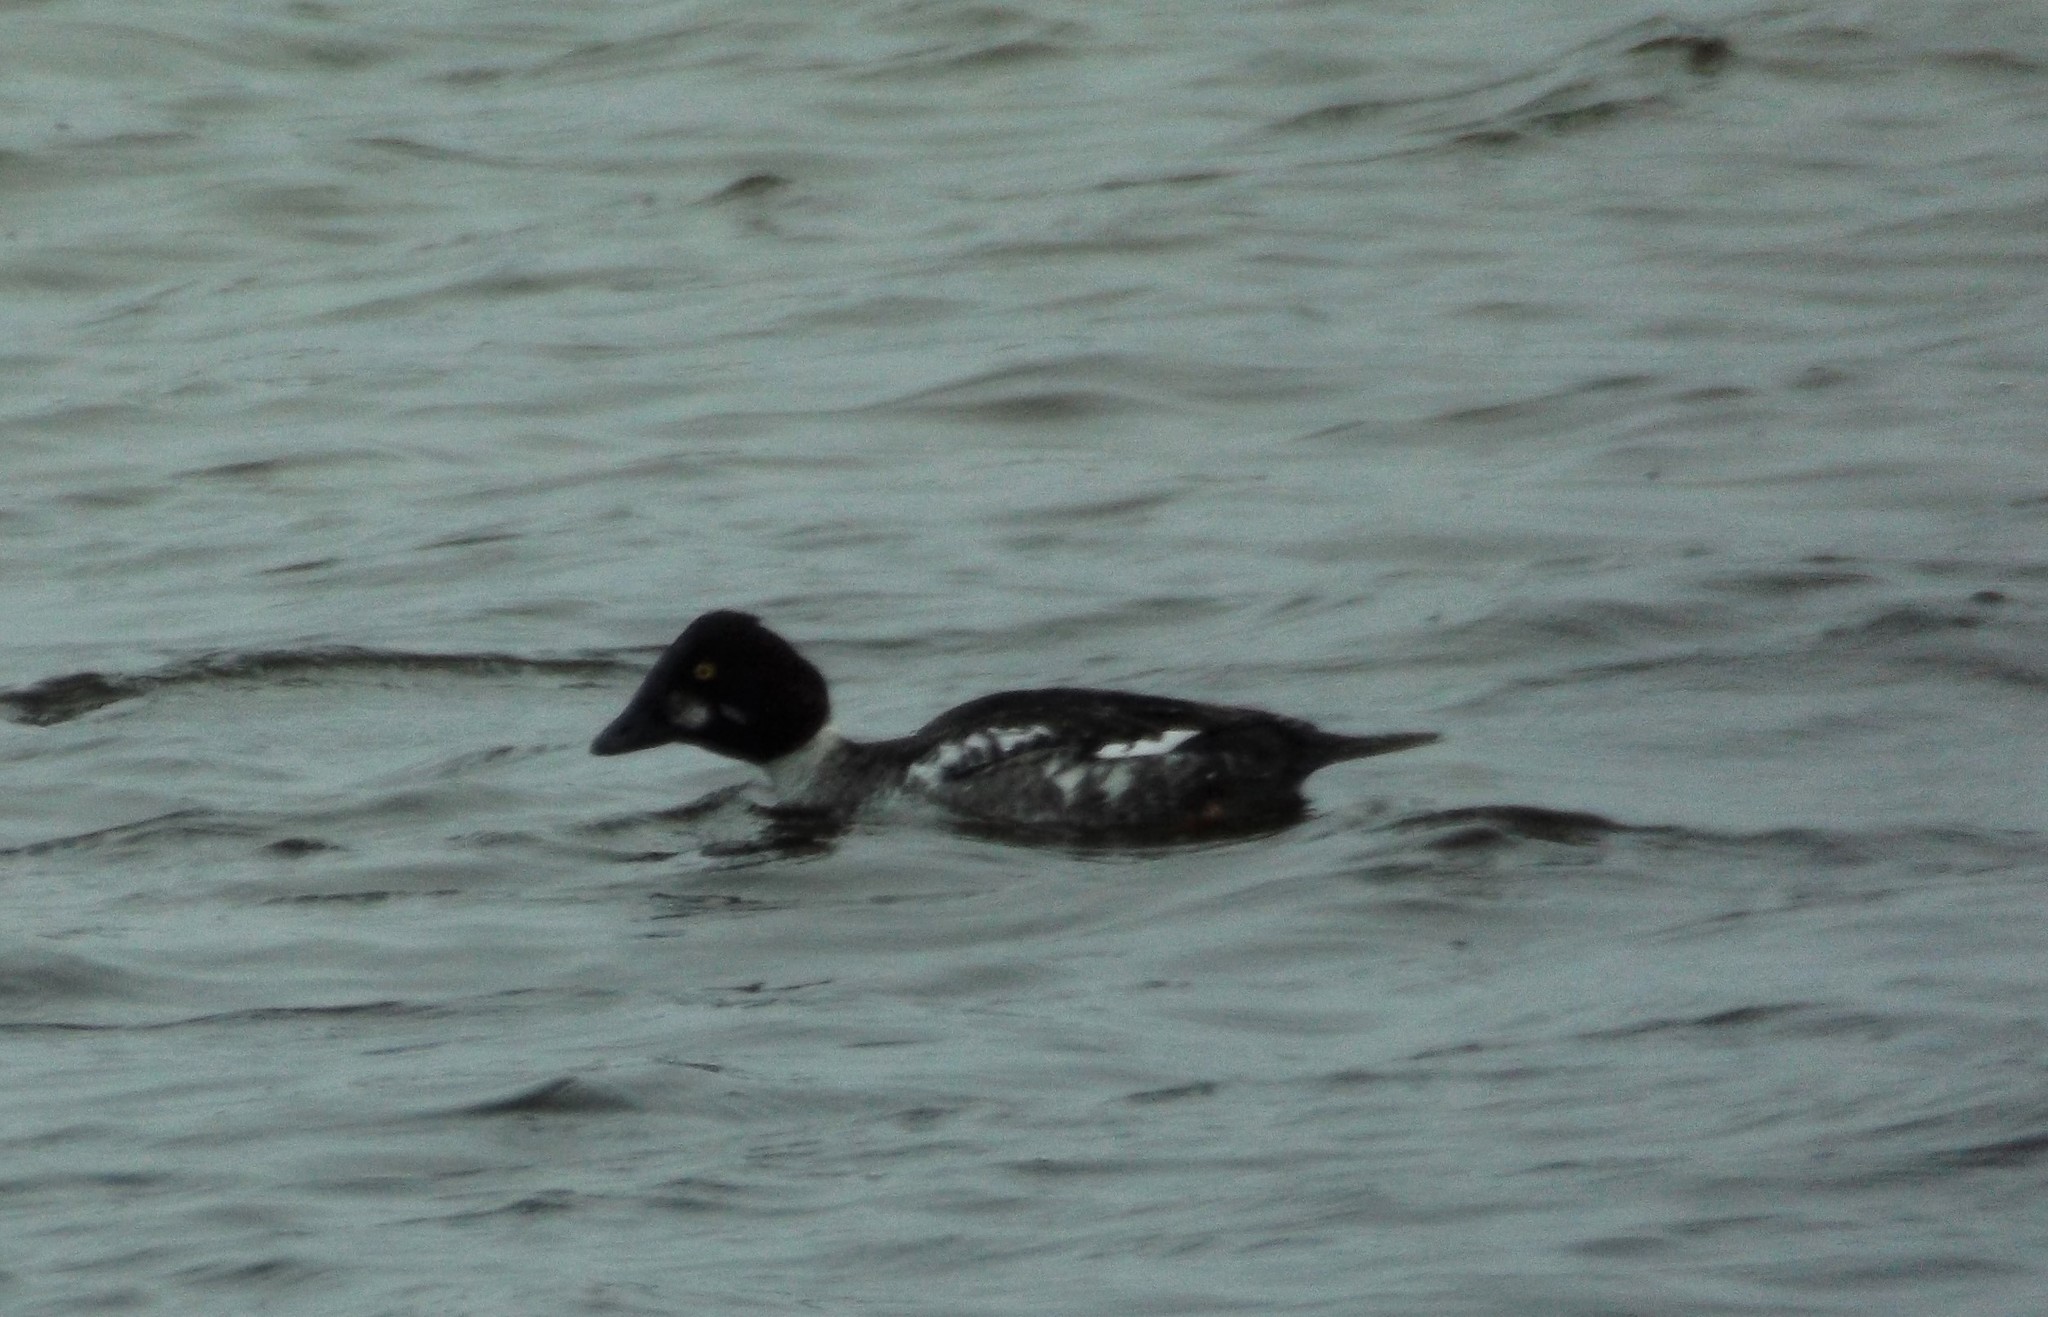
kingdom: Animalia
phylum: Chordata
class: Aves
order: Anseriformes
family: Anatidae
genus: Bucephala
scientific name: Bucephala clangula
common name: Common goldeneye
